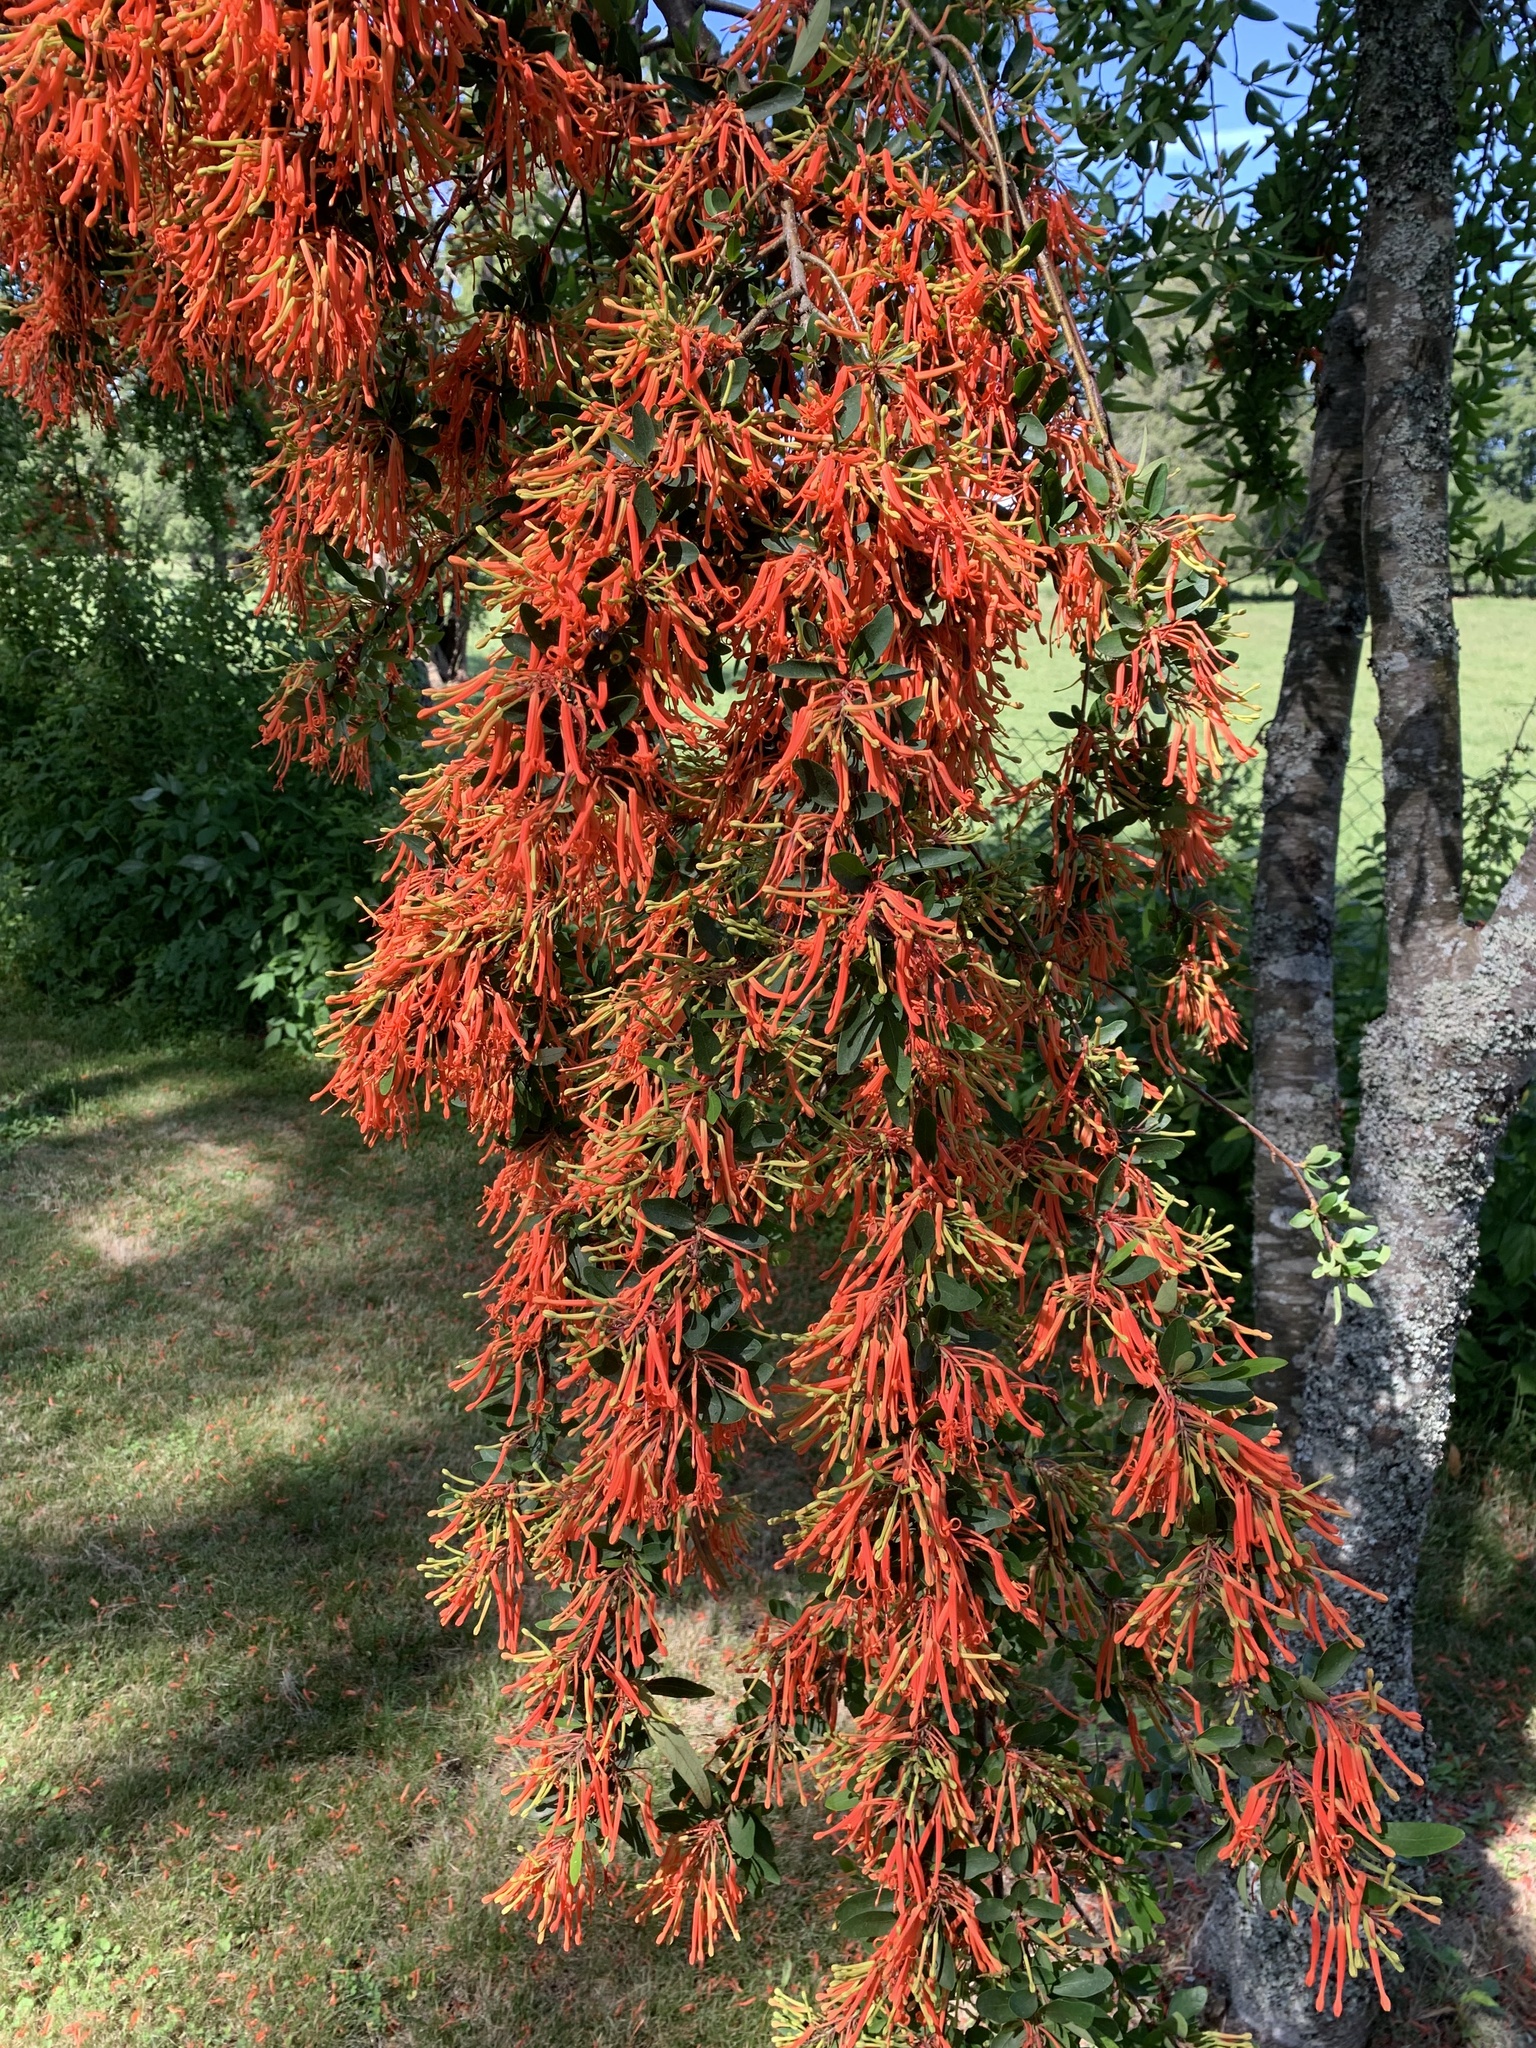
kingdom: Plantae
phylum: Tracheophyta
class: Magnoliopsida
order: Proteales
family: Proteaceae
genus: Embothrium
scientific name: Embothrium coccineum
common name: Chilean firebush
